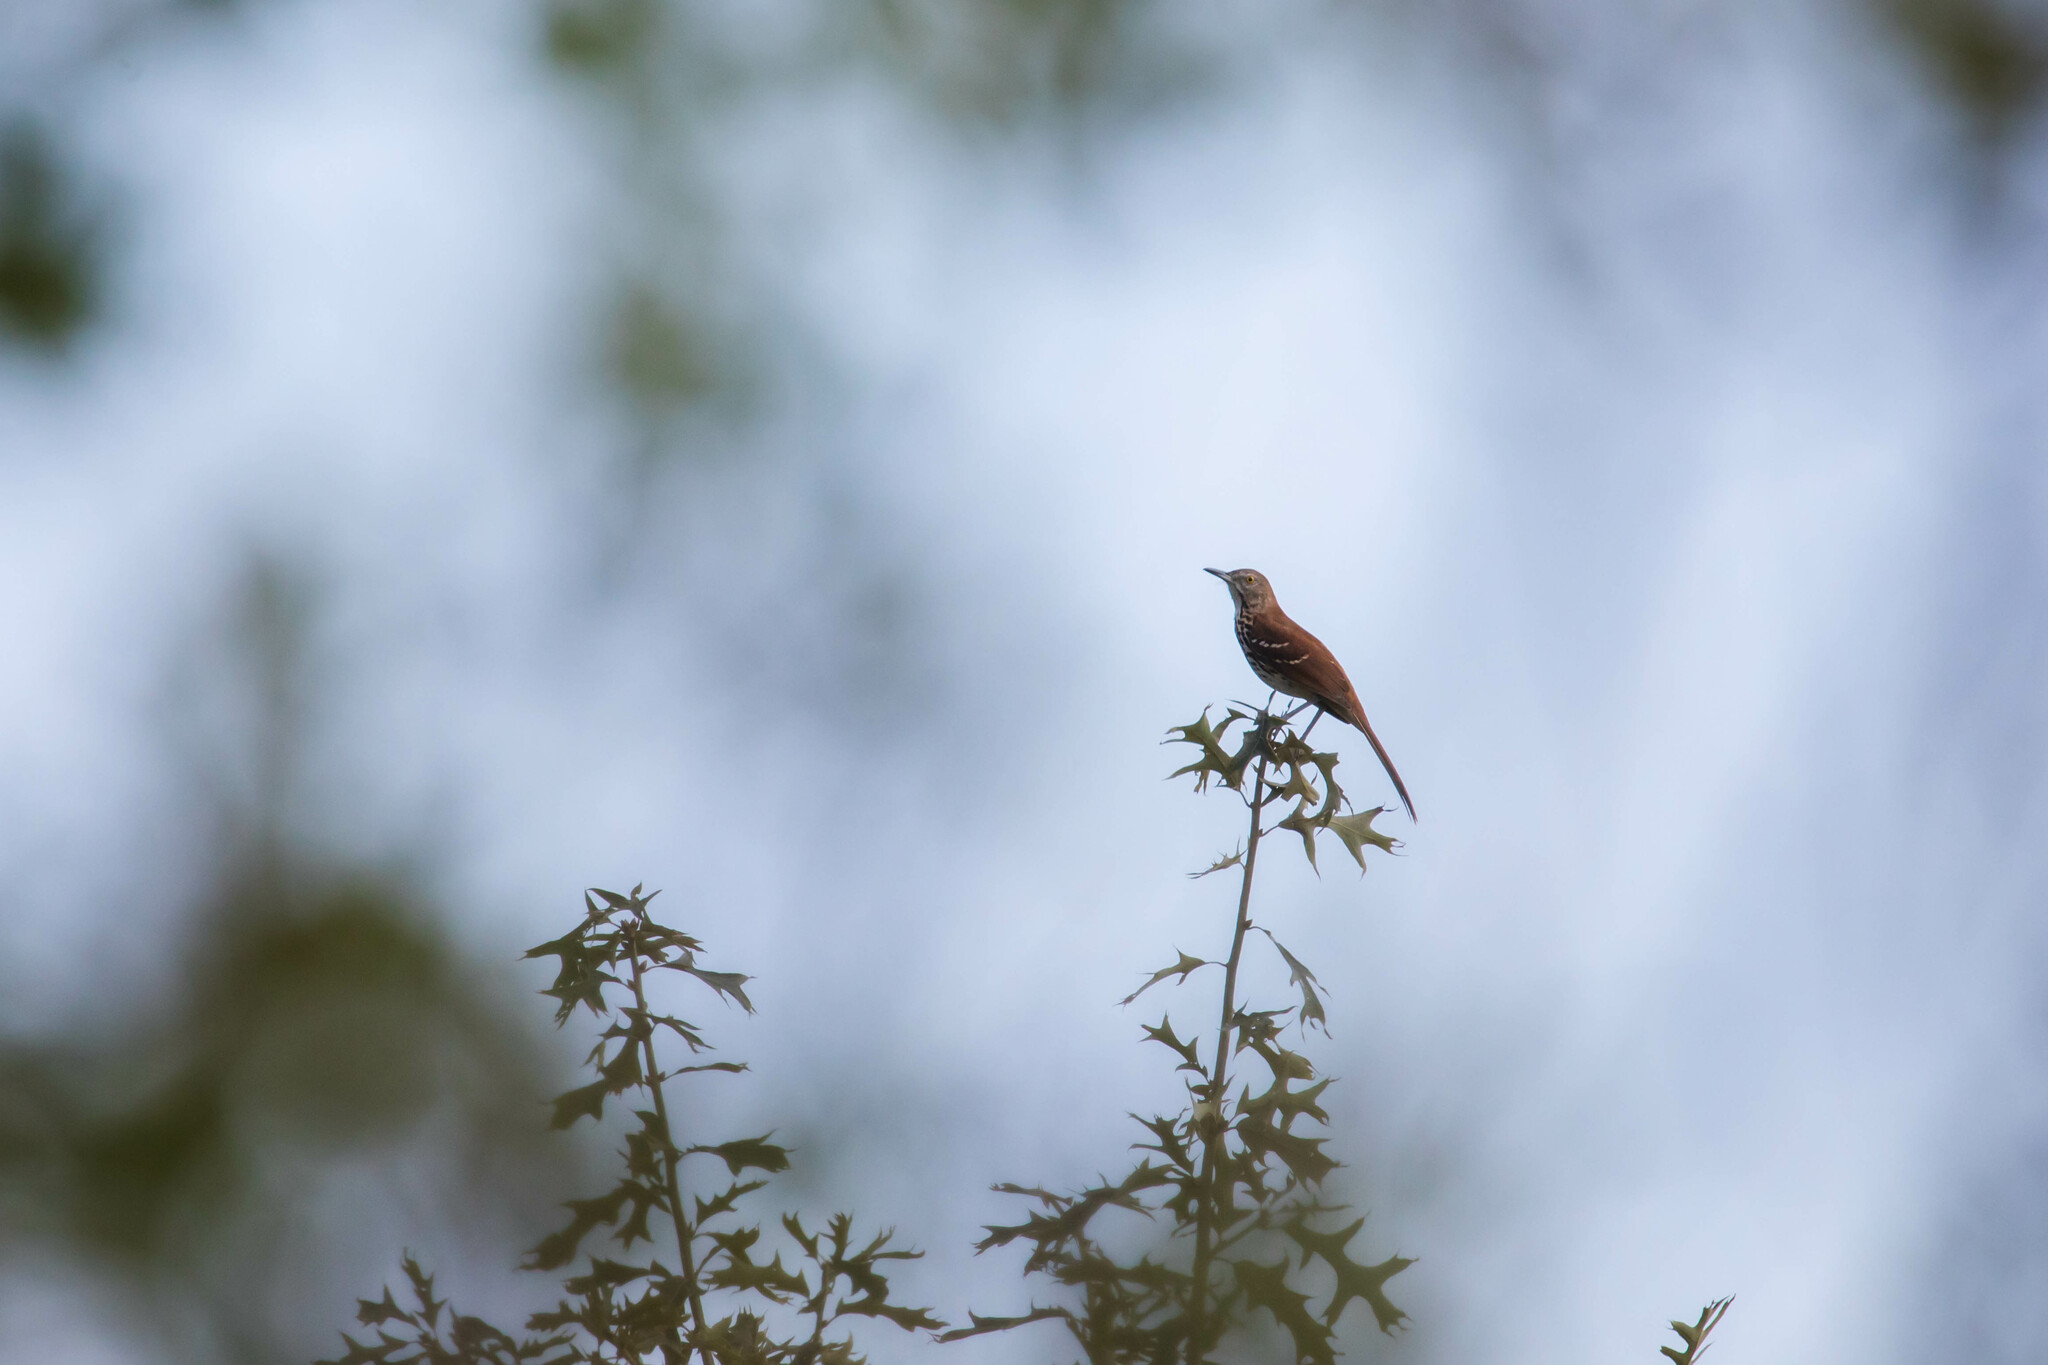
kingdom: Animalia
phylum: Chordata
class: Aves
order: Passeriformes
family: Mimidae
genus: Toxostoma
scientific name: Toxostoma rufum
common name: Brown thrasher
